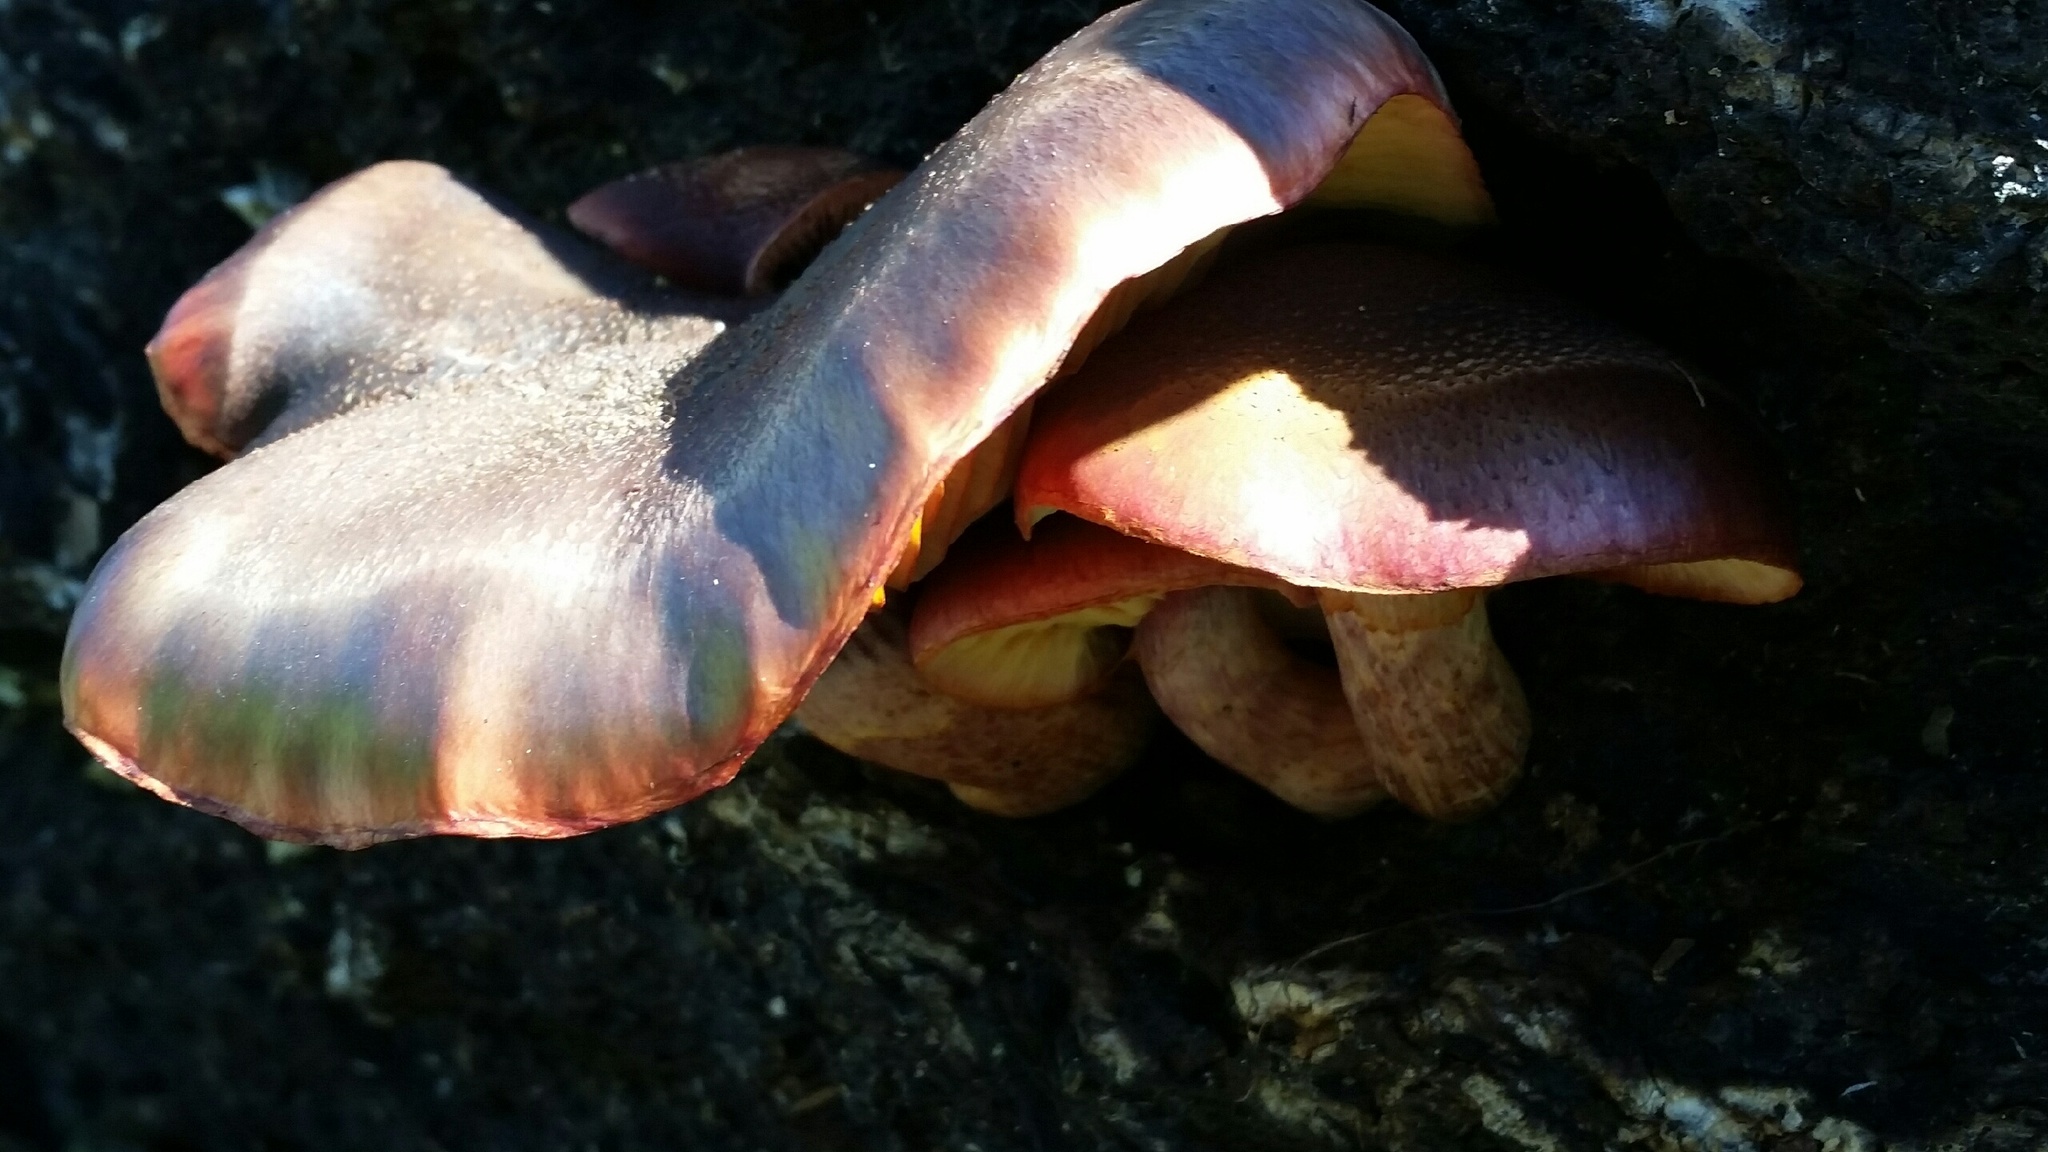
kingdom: Fungi
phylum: Basidiomycota
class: Agaricomycetes
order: Agaricales
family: Hymenogastraceae
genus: Gymnopilus
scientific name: Gymnopilus luteofolius
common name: Yellow-gilled gymnopilus
